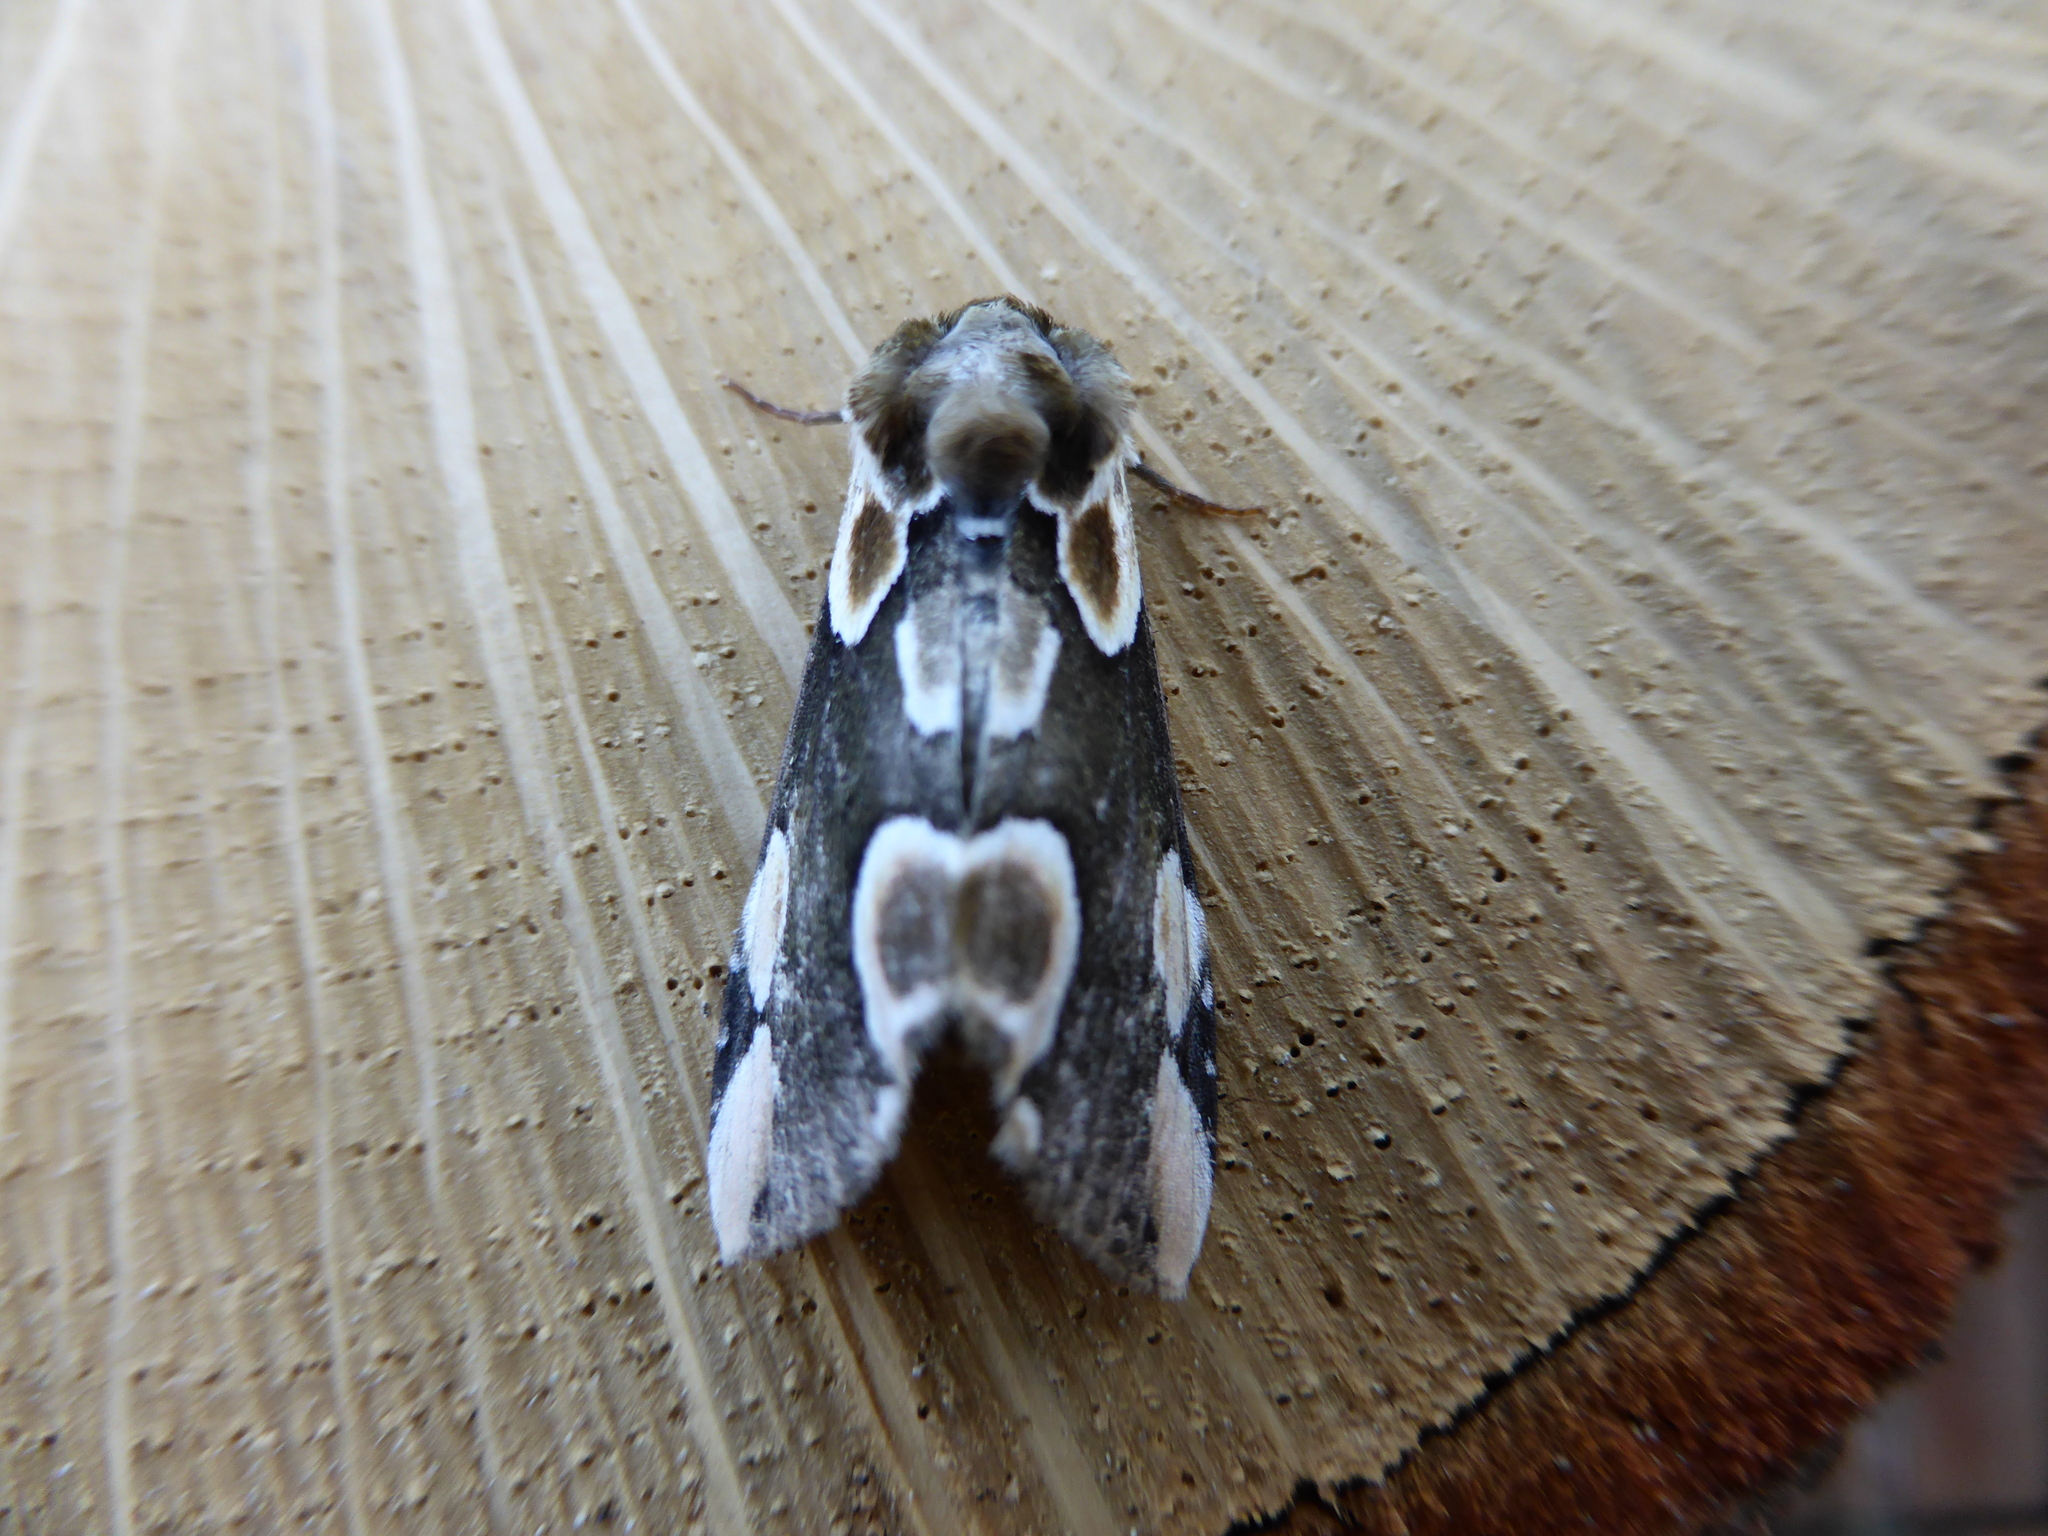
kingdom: Animalia
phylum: Arthropoda
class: Insecta
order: Lepidoptera
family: Drepanidae
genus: Thyatira
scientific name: Thyatira batis
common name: Peach blossom
